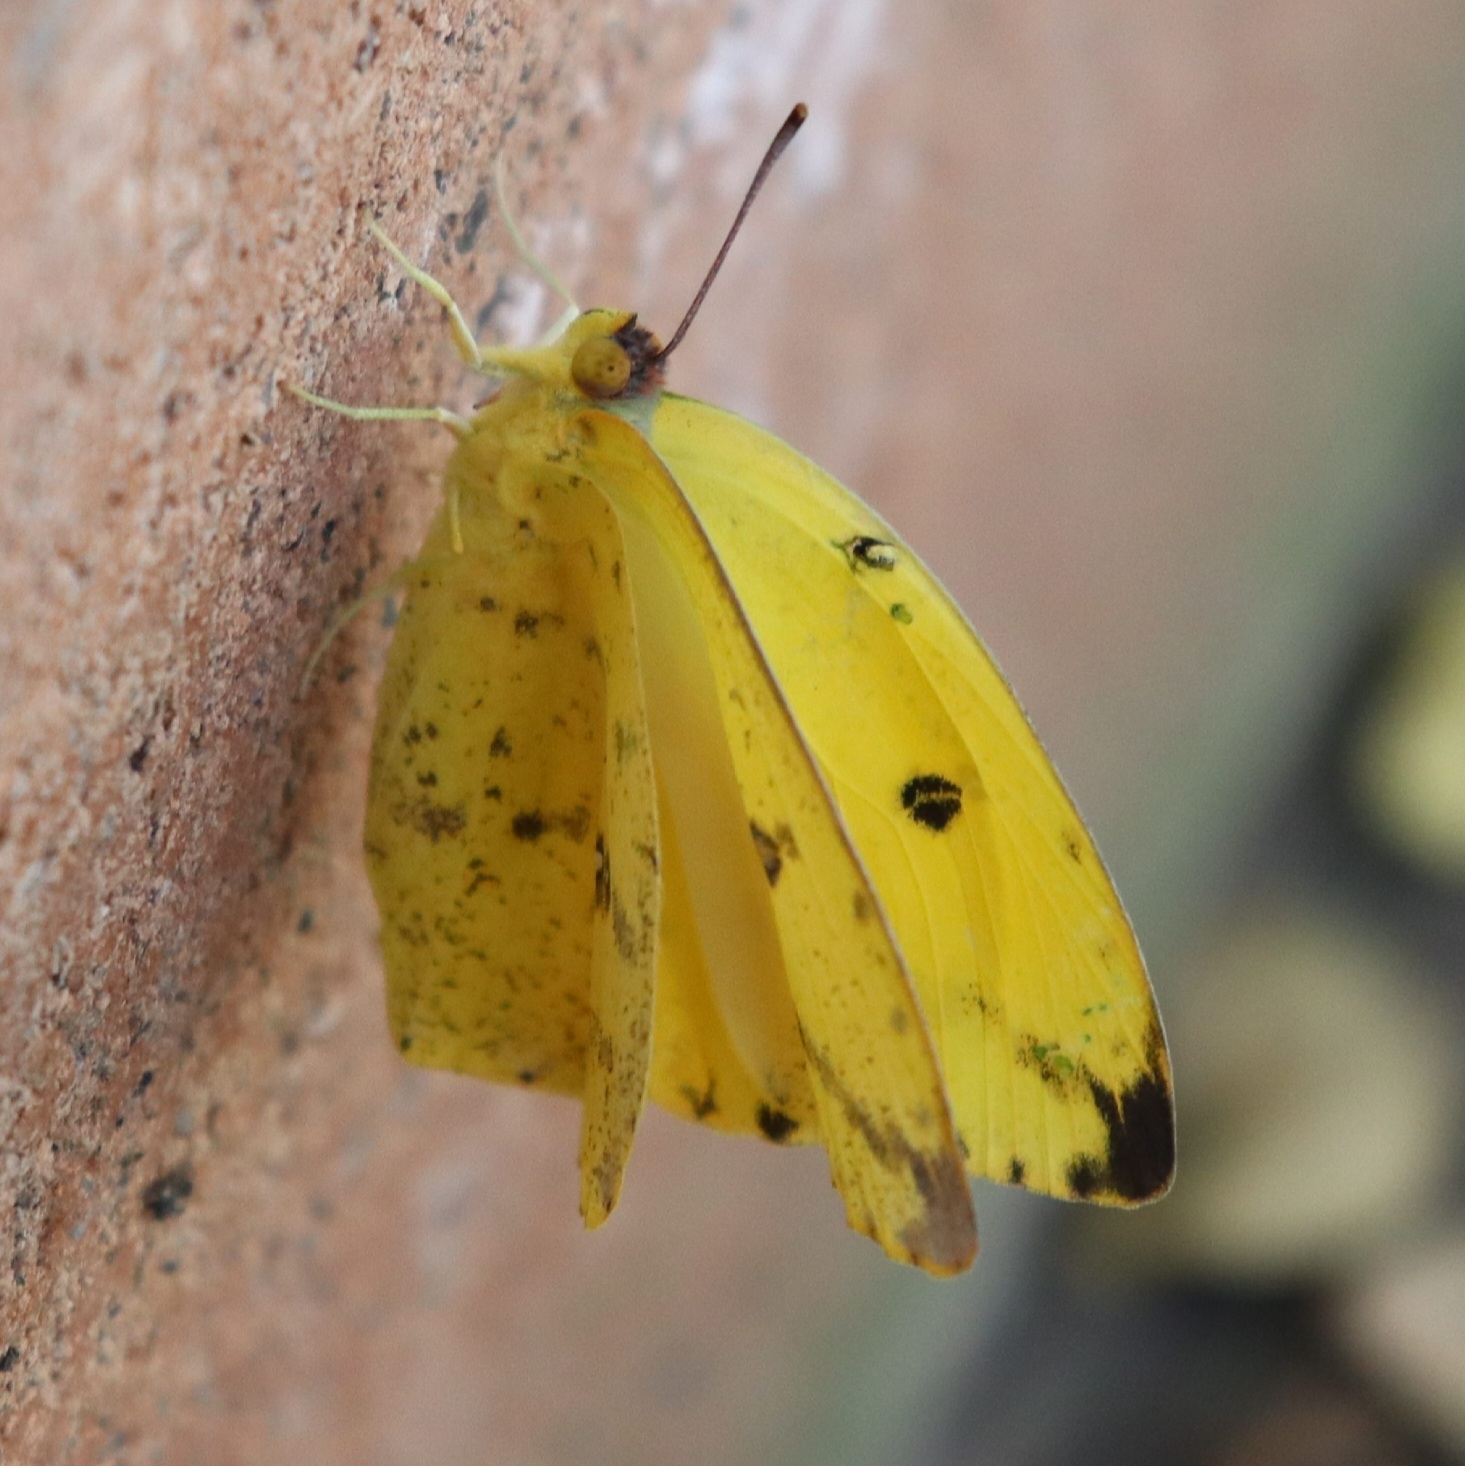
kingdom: Animalia
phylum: Arthropoda
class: Insecta
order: Lepidoptera
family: Pieridae
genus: Phoebis
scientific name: Phoebis philea
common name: Orange-barred giant sulphur
